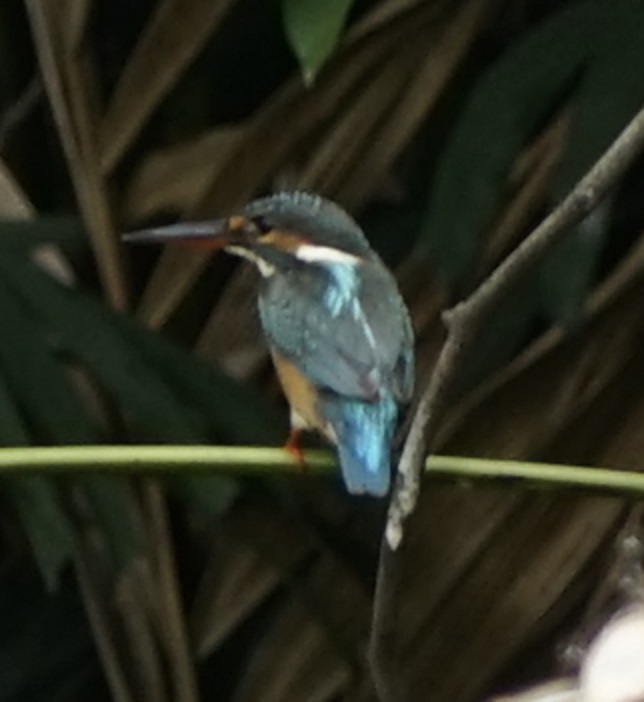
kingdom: Animalia
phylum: Chordata
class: Aves
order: Coraciiformes
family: Alcedinidae
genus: Alcedo
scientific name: Alcedo atthis
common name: Common kingfisher
